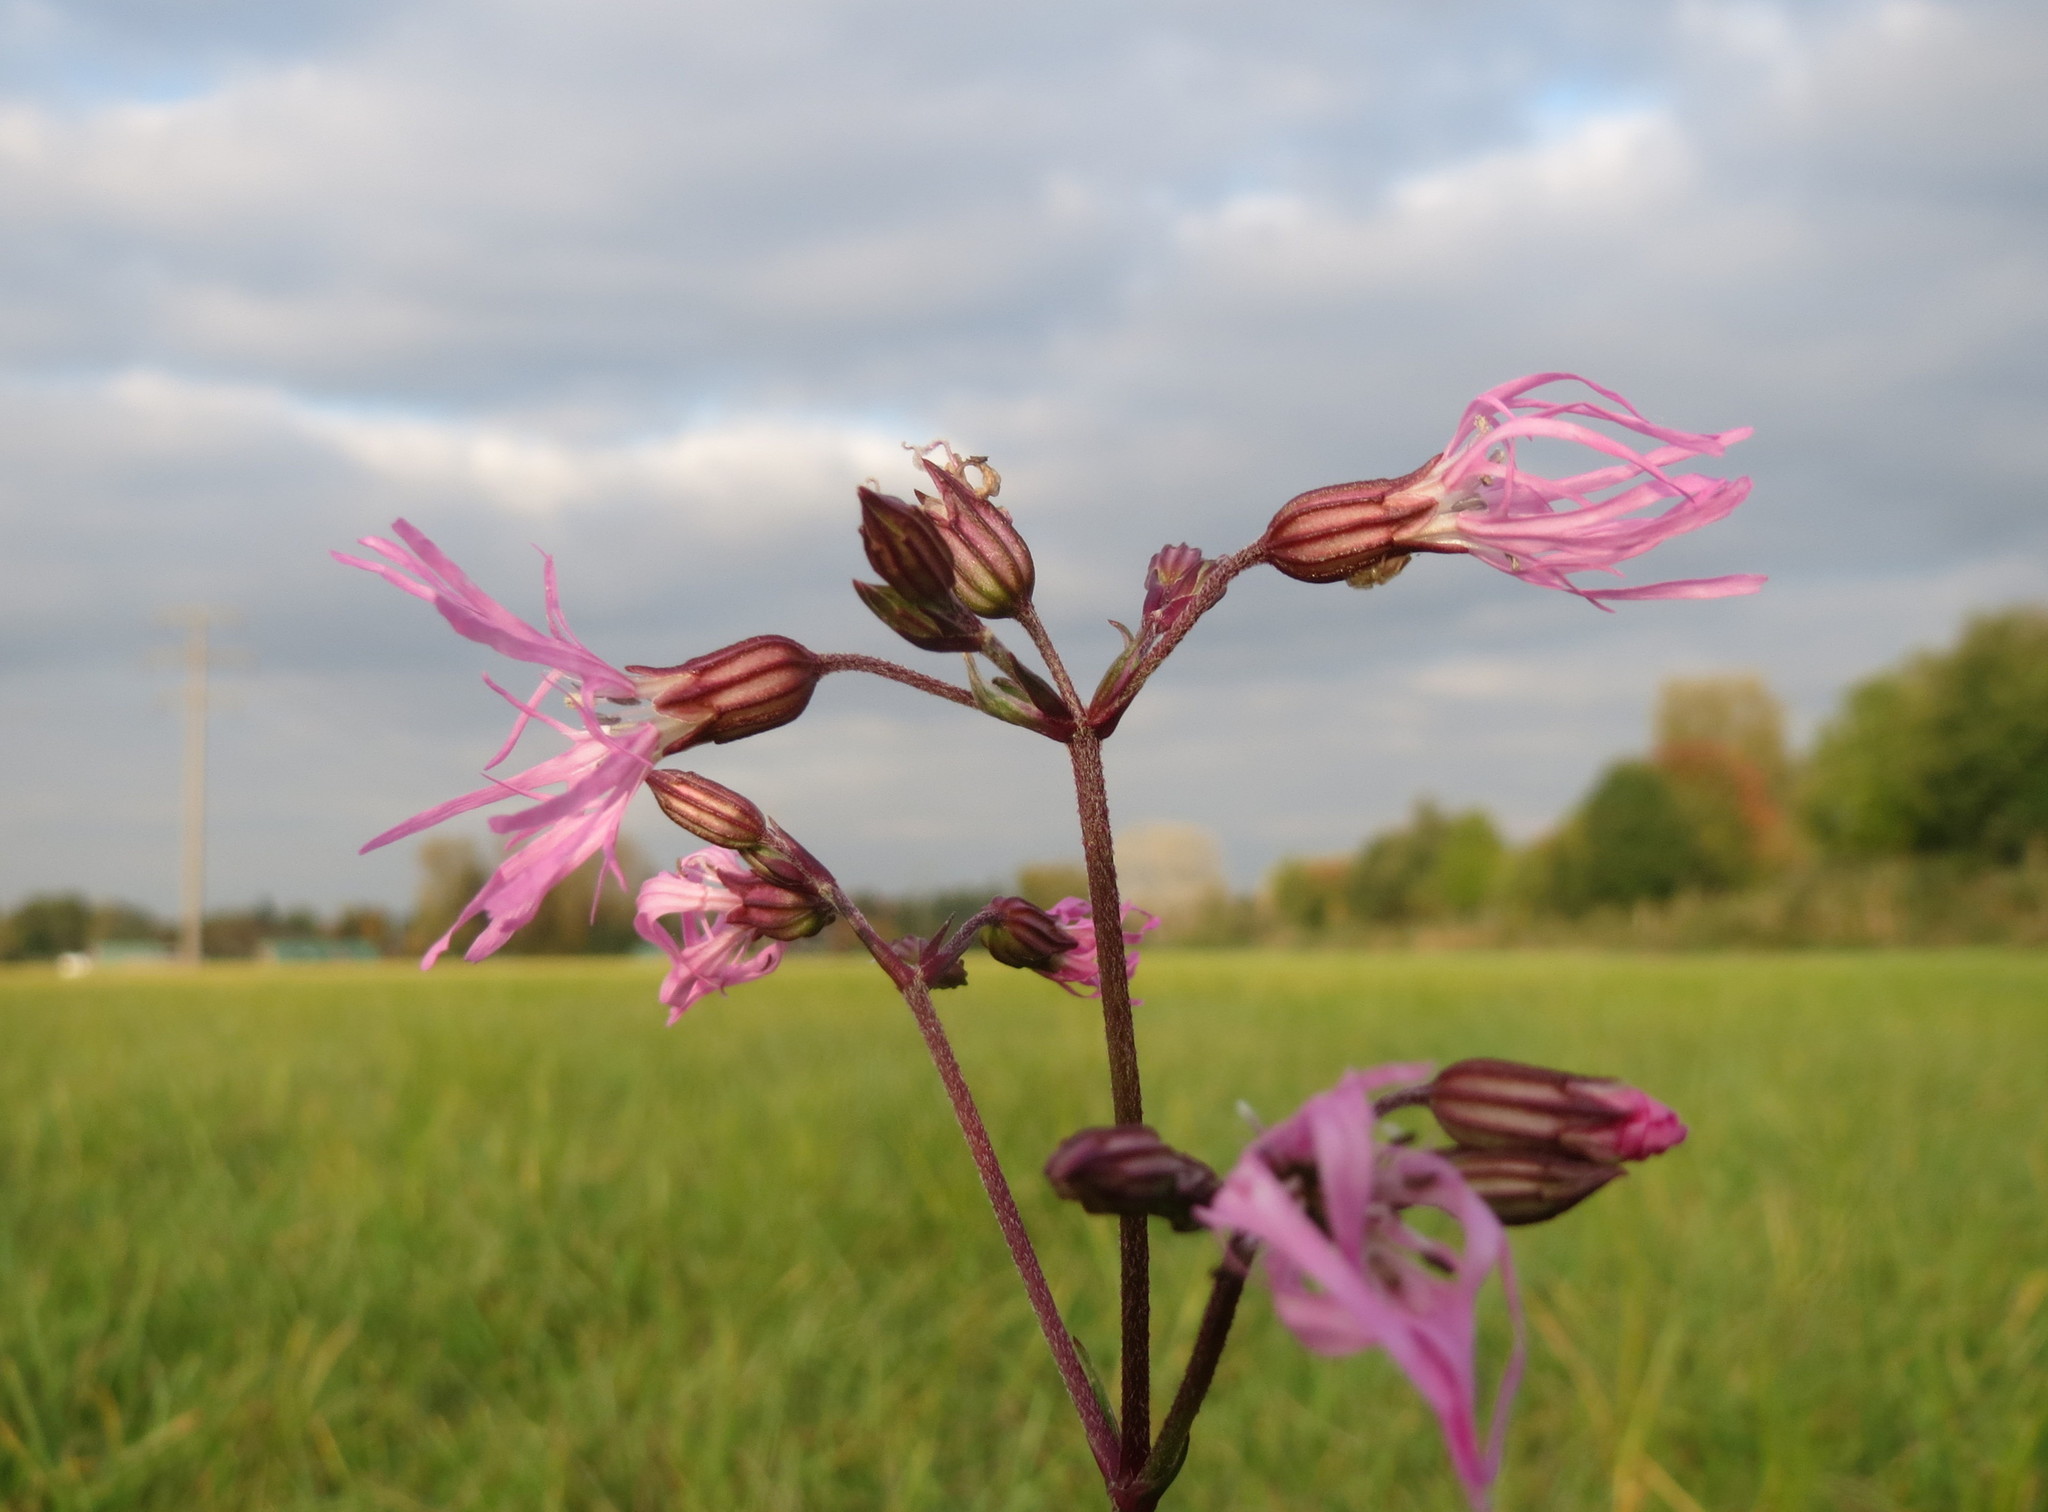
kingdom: Plantae
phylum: Tracheophyta
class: Magnoliopsida
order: Caryophyllales
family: Caryophyllaceae
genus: Silene
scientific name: Silene flos-cuculi
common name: Ragged-robin
